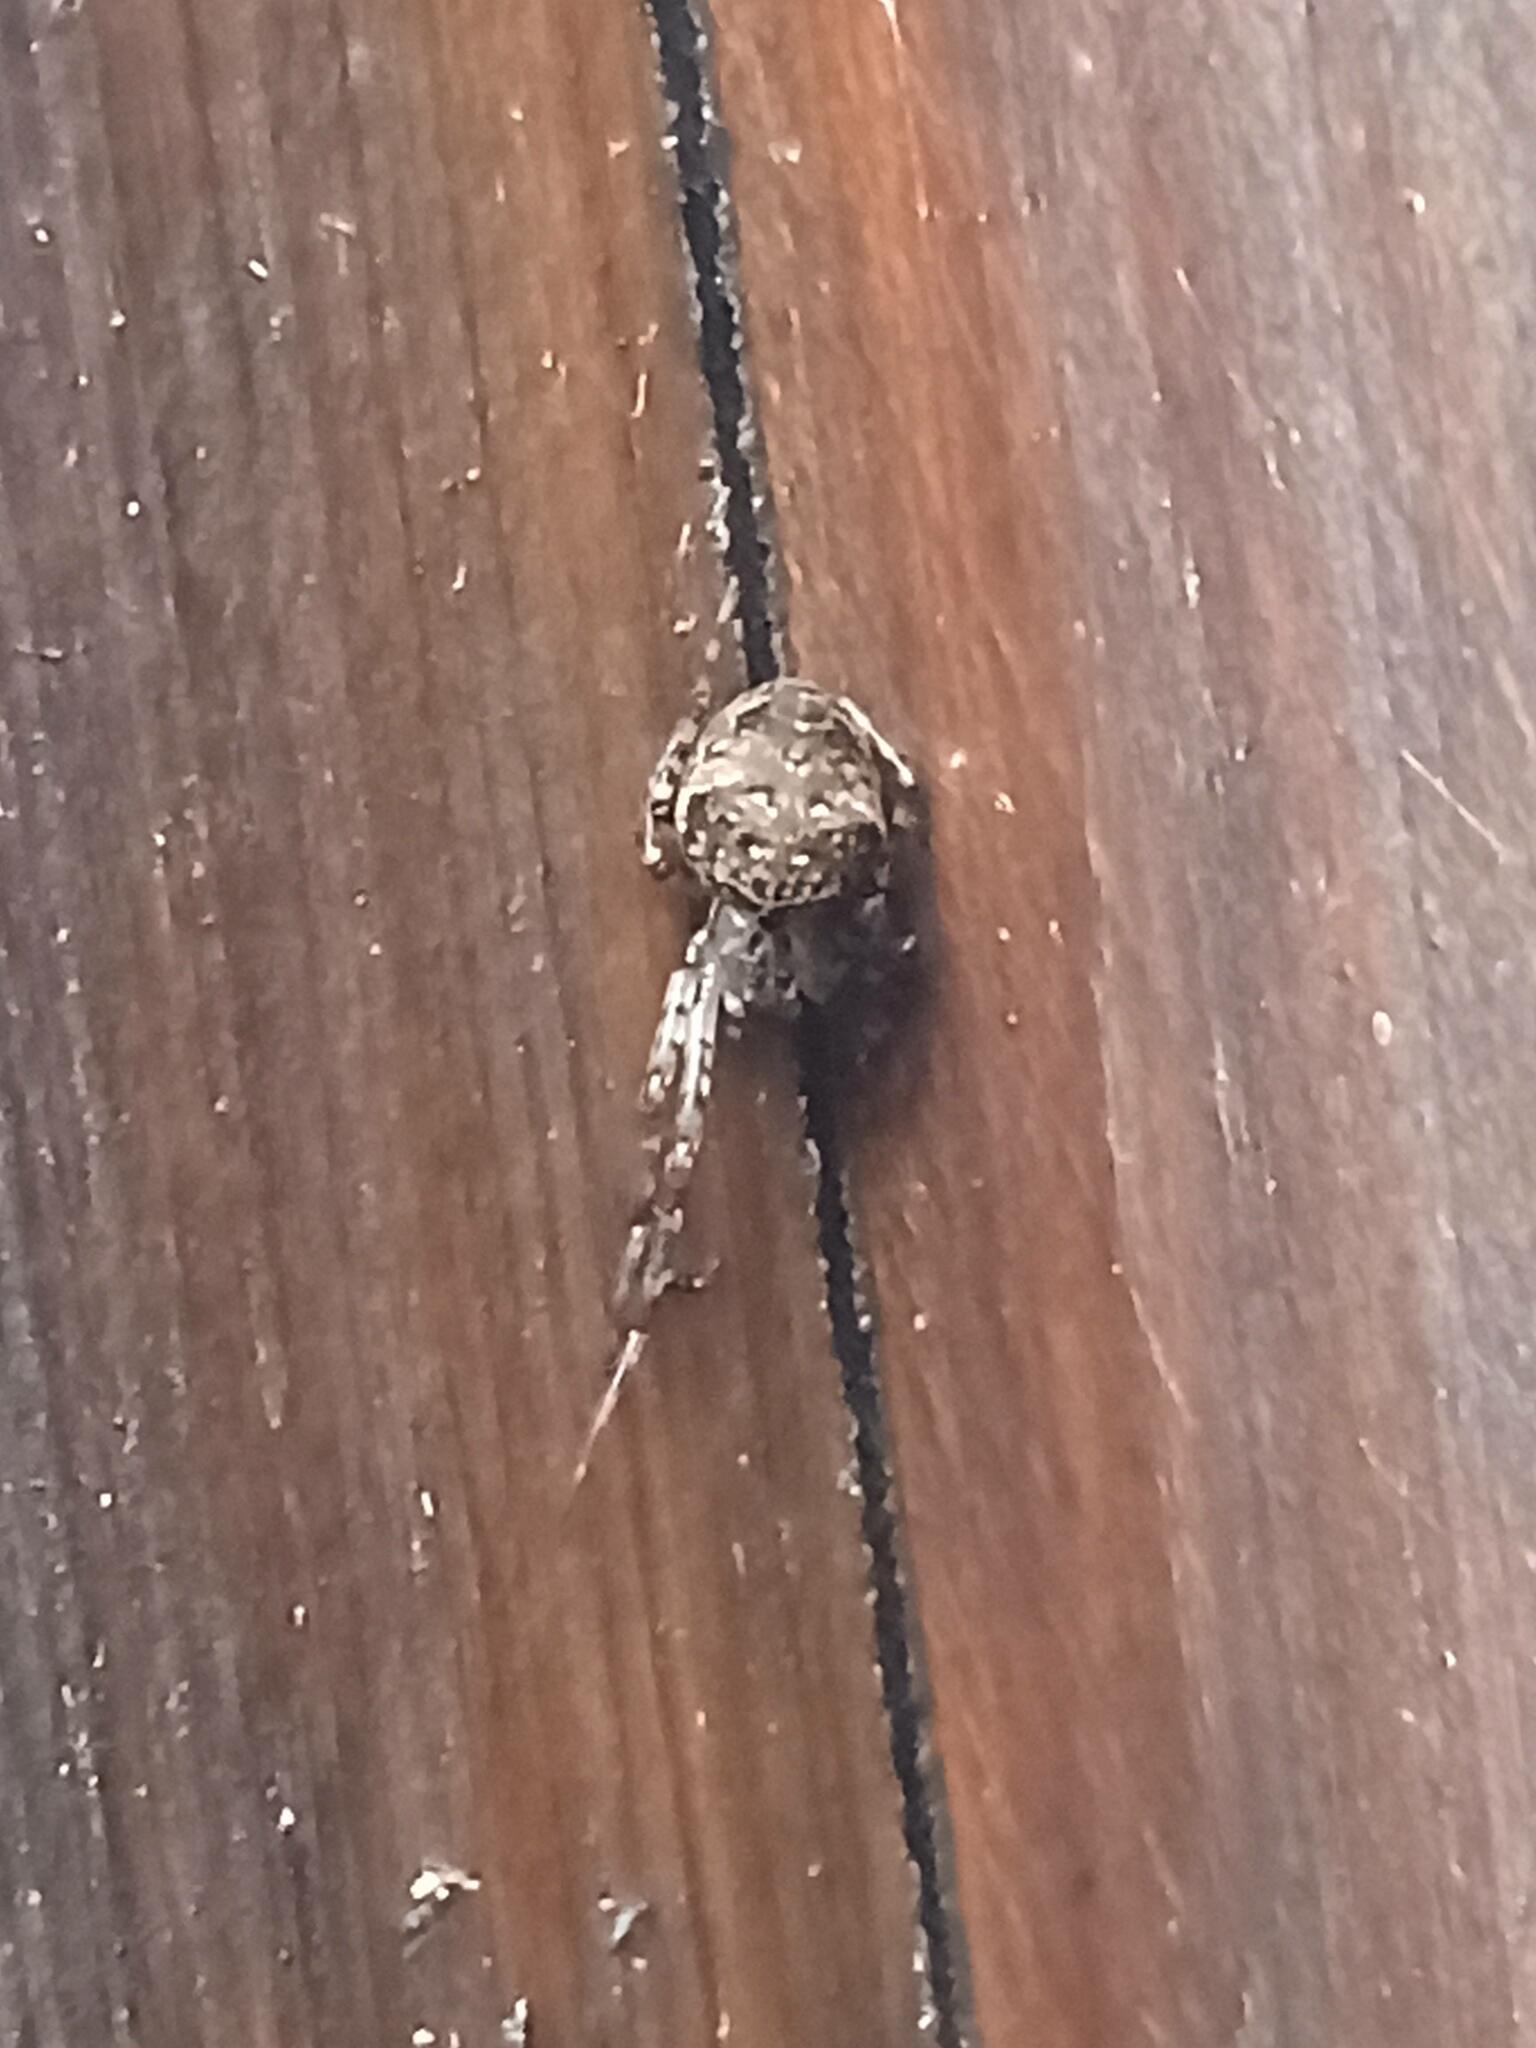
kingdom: Animalia
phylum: Arthropoda
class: Arachnida
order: Araneae
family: Tetragnathidae
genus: Metellina
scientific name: Metellina merianae
